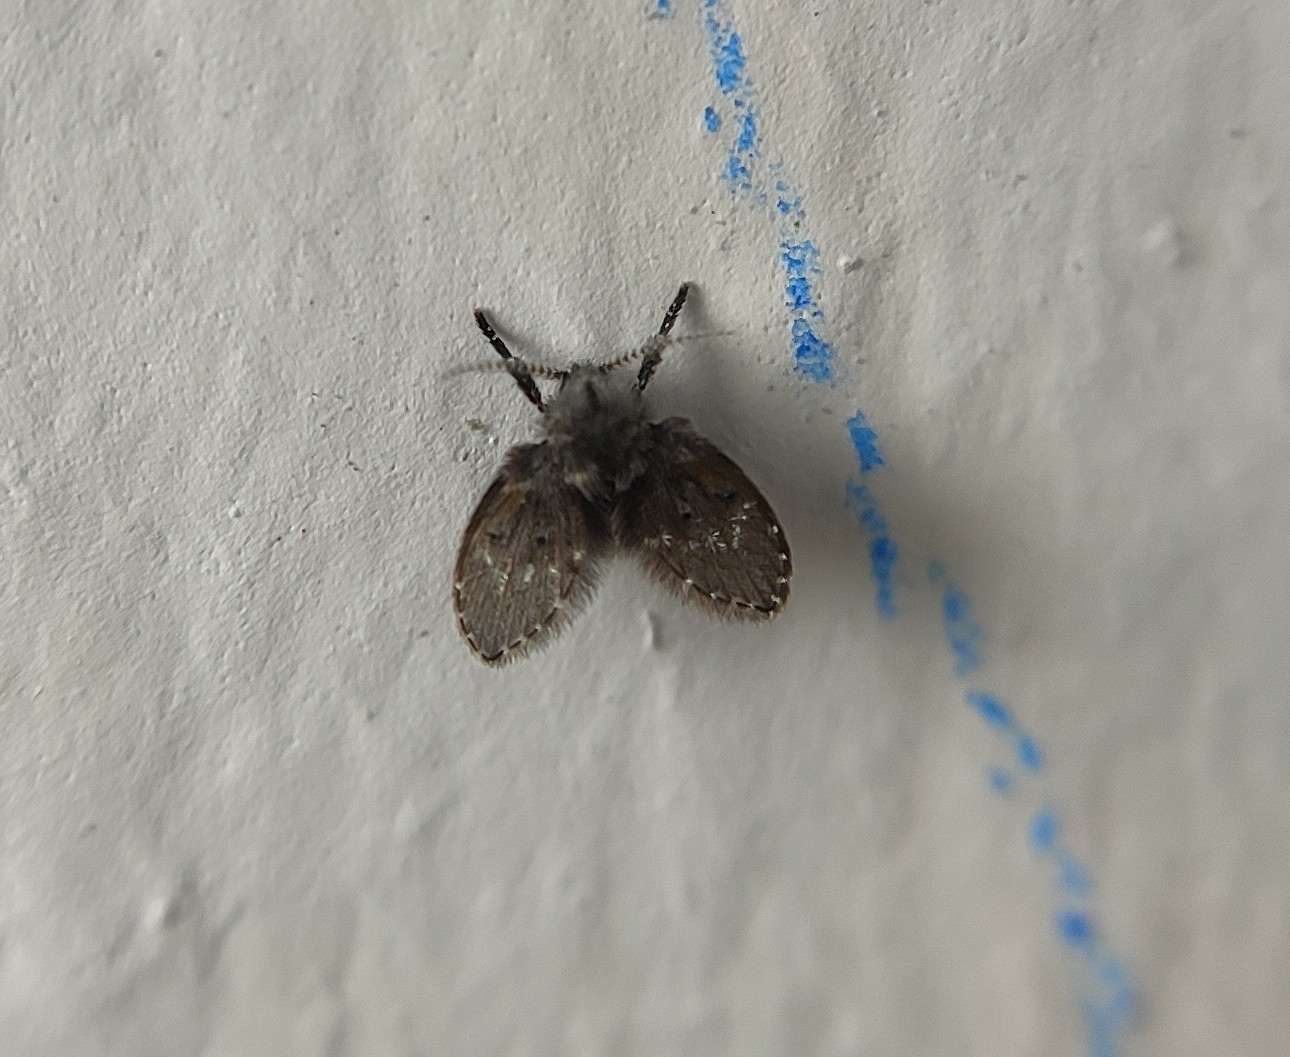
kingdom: Animalia
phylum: Arthropoda
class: Insecta
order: Diptera
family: Psychodidae
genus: Clogmia
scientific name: Clogmia albipunctatus
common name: White-spotted moth fly
